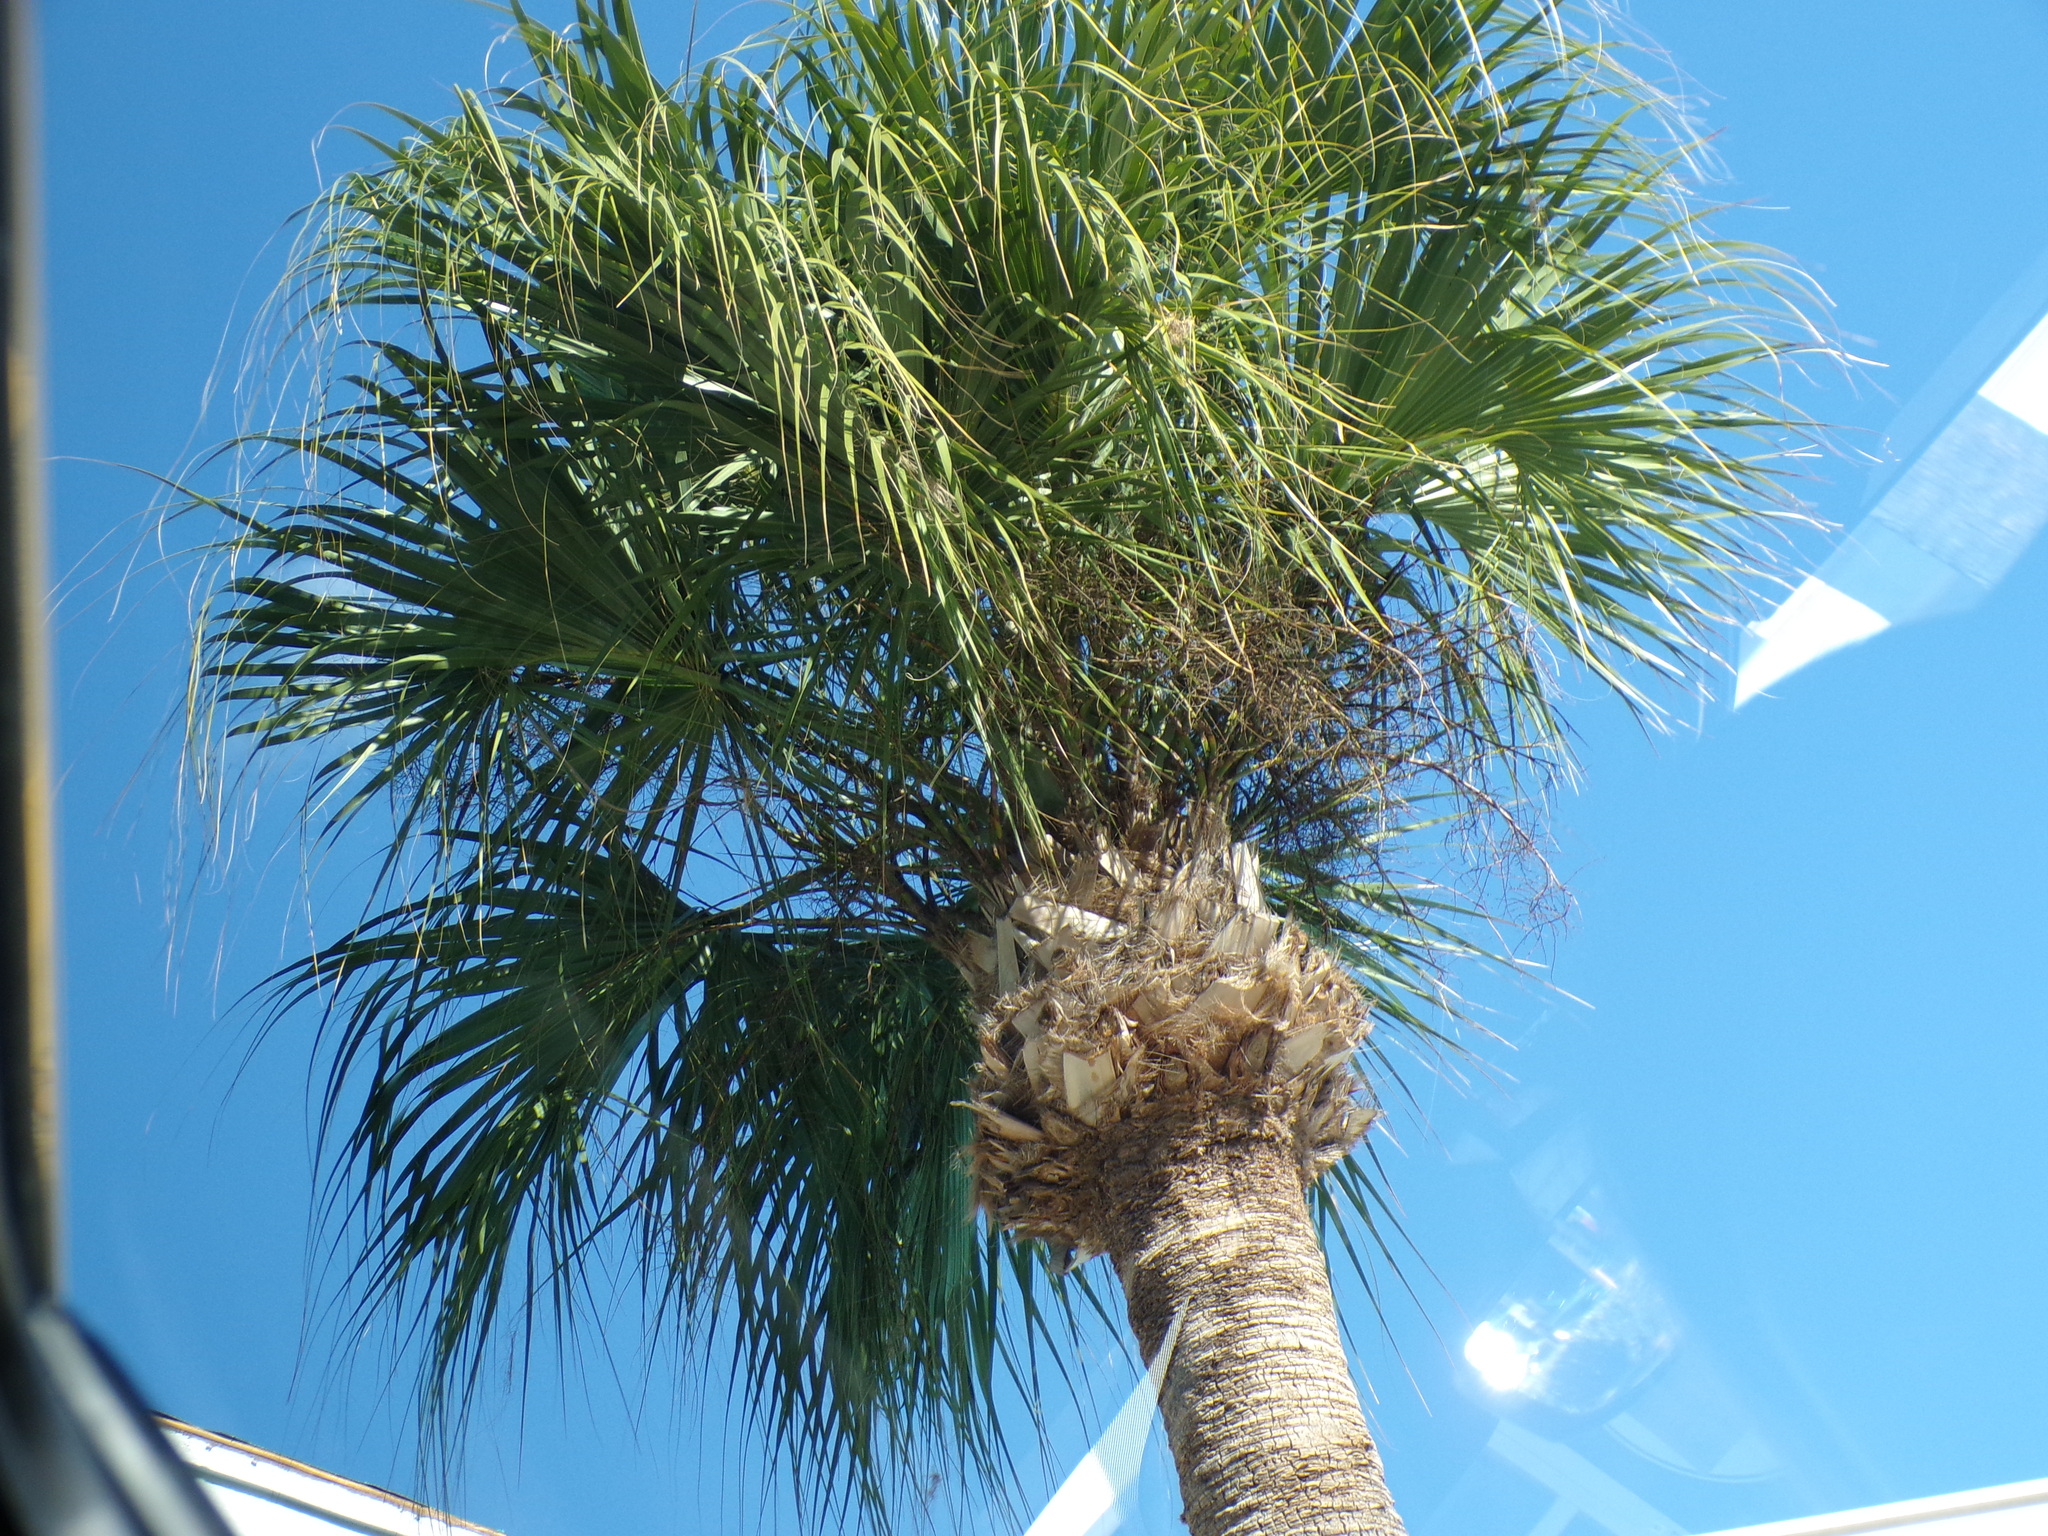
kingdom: Plantae
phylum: Tracheophyta
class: Liliopsida
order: Arecales
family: Arecaceae
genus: Sabal
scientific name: Sabal palmetto
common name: Blue palmetto
